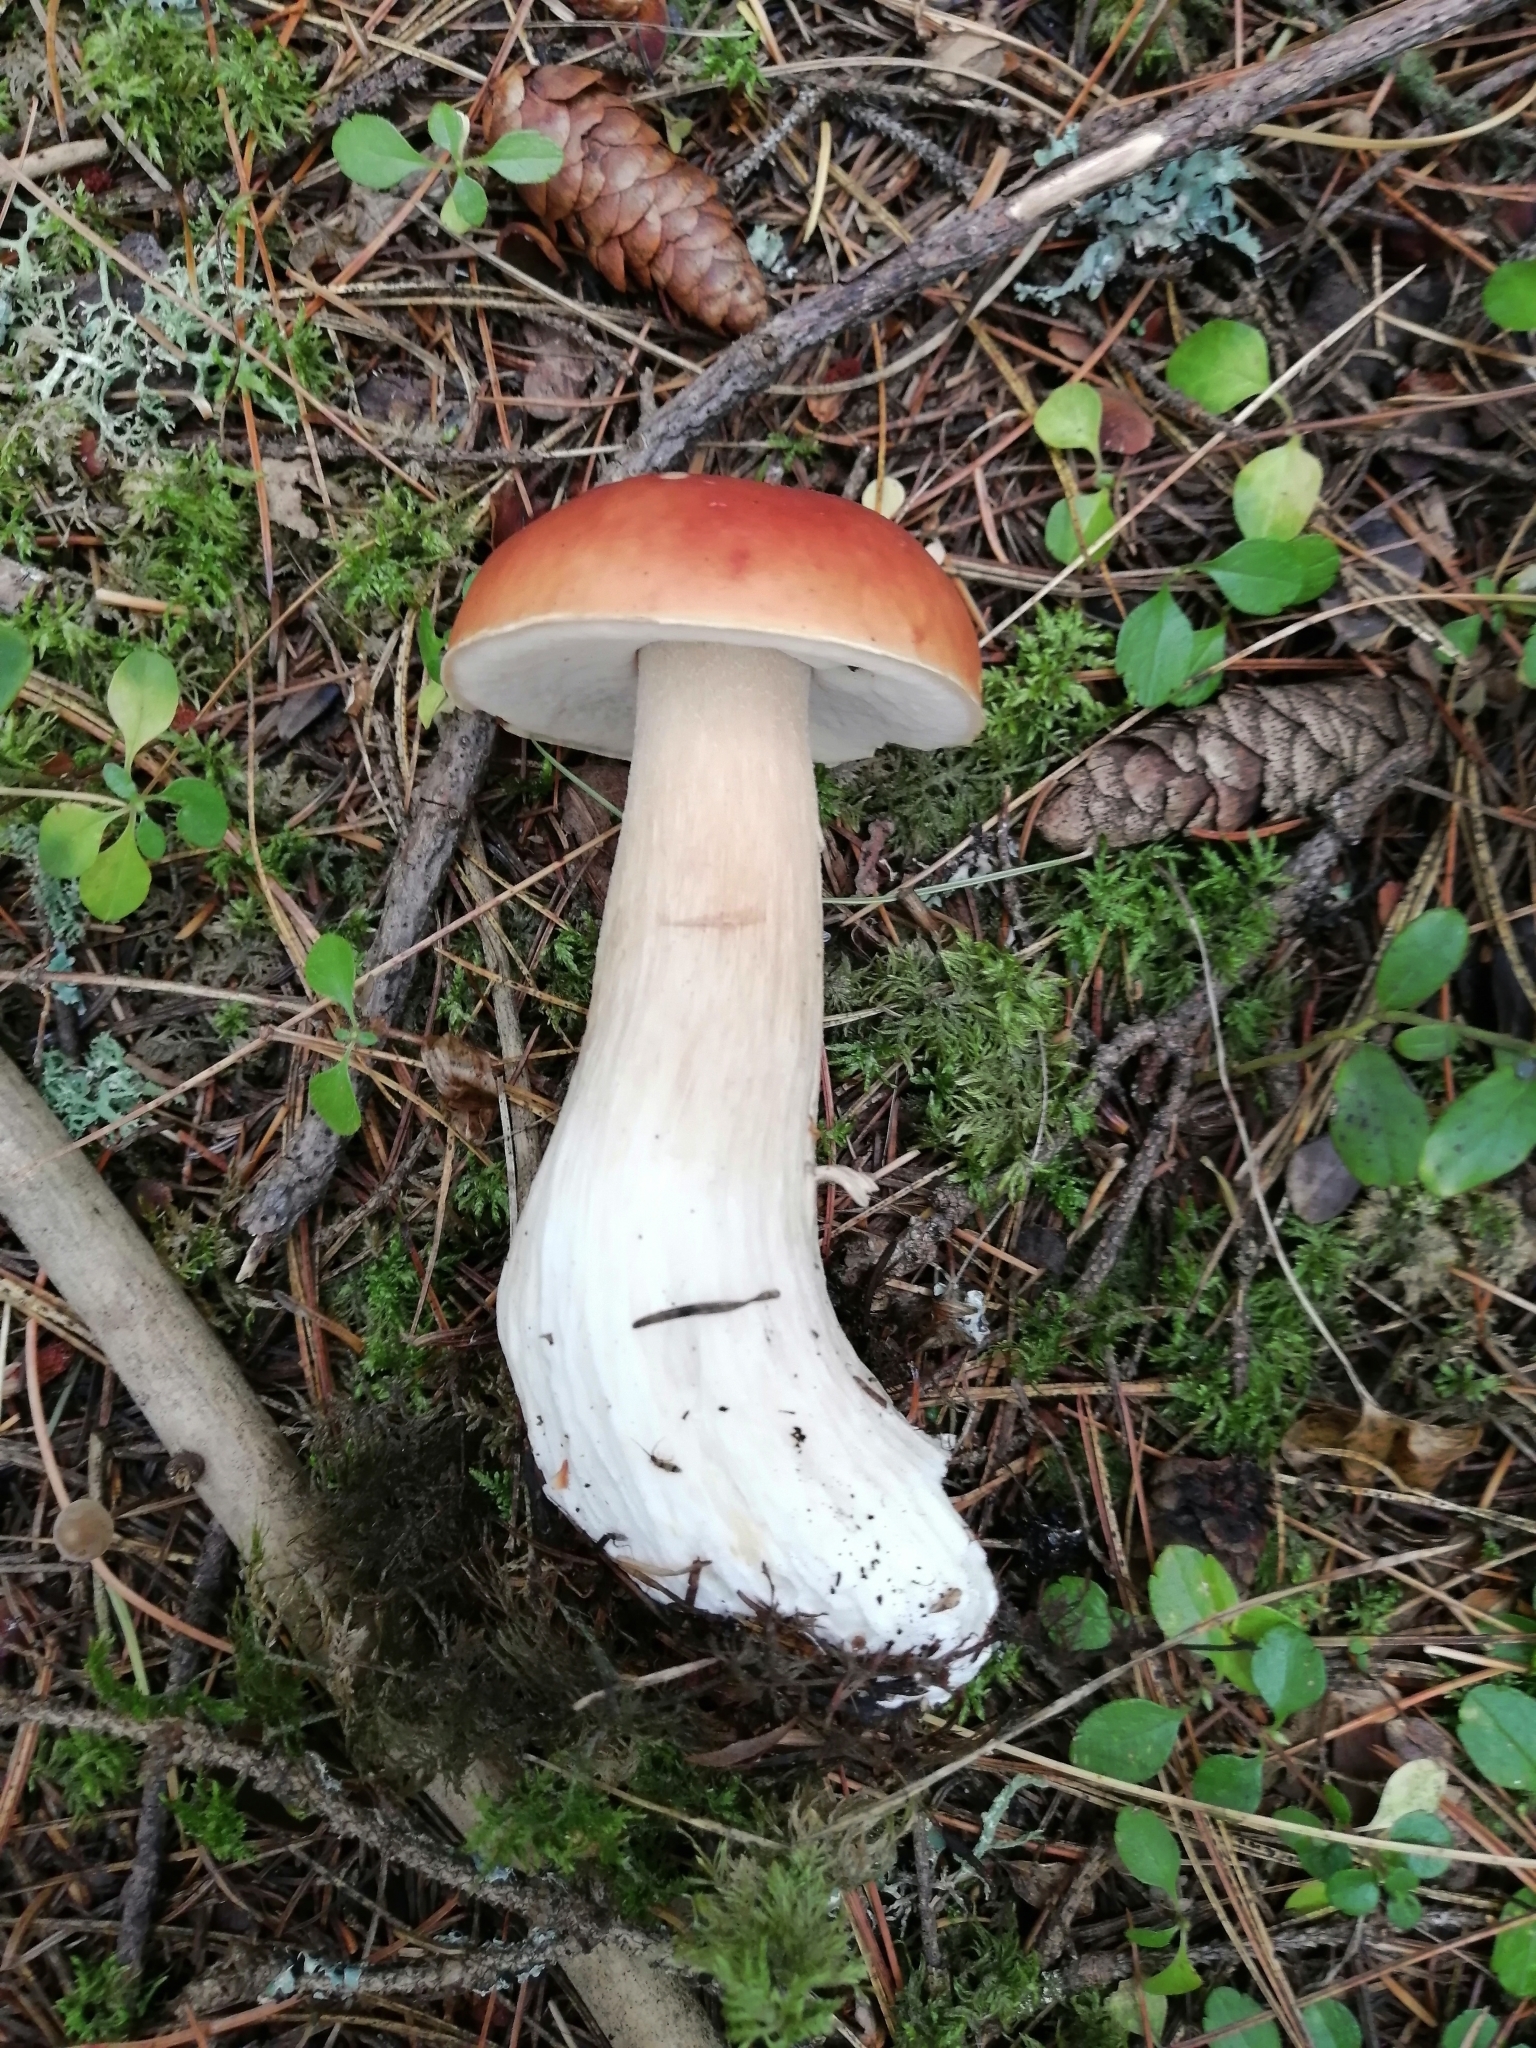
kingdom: Fungi
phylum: Basidiomycota
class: Agaricomycetes
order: Boletales
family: Boletaceae
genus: Boletus
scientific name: Boletus edulis
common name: Cep
